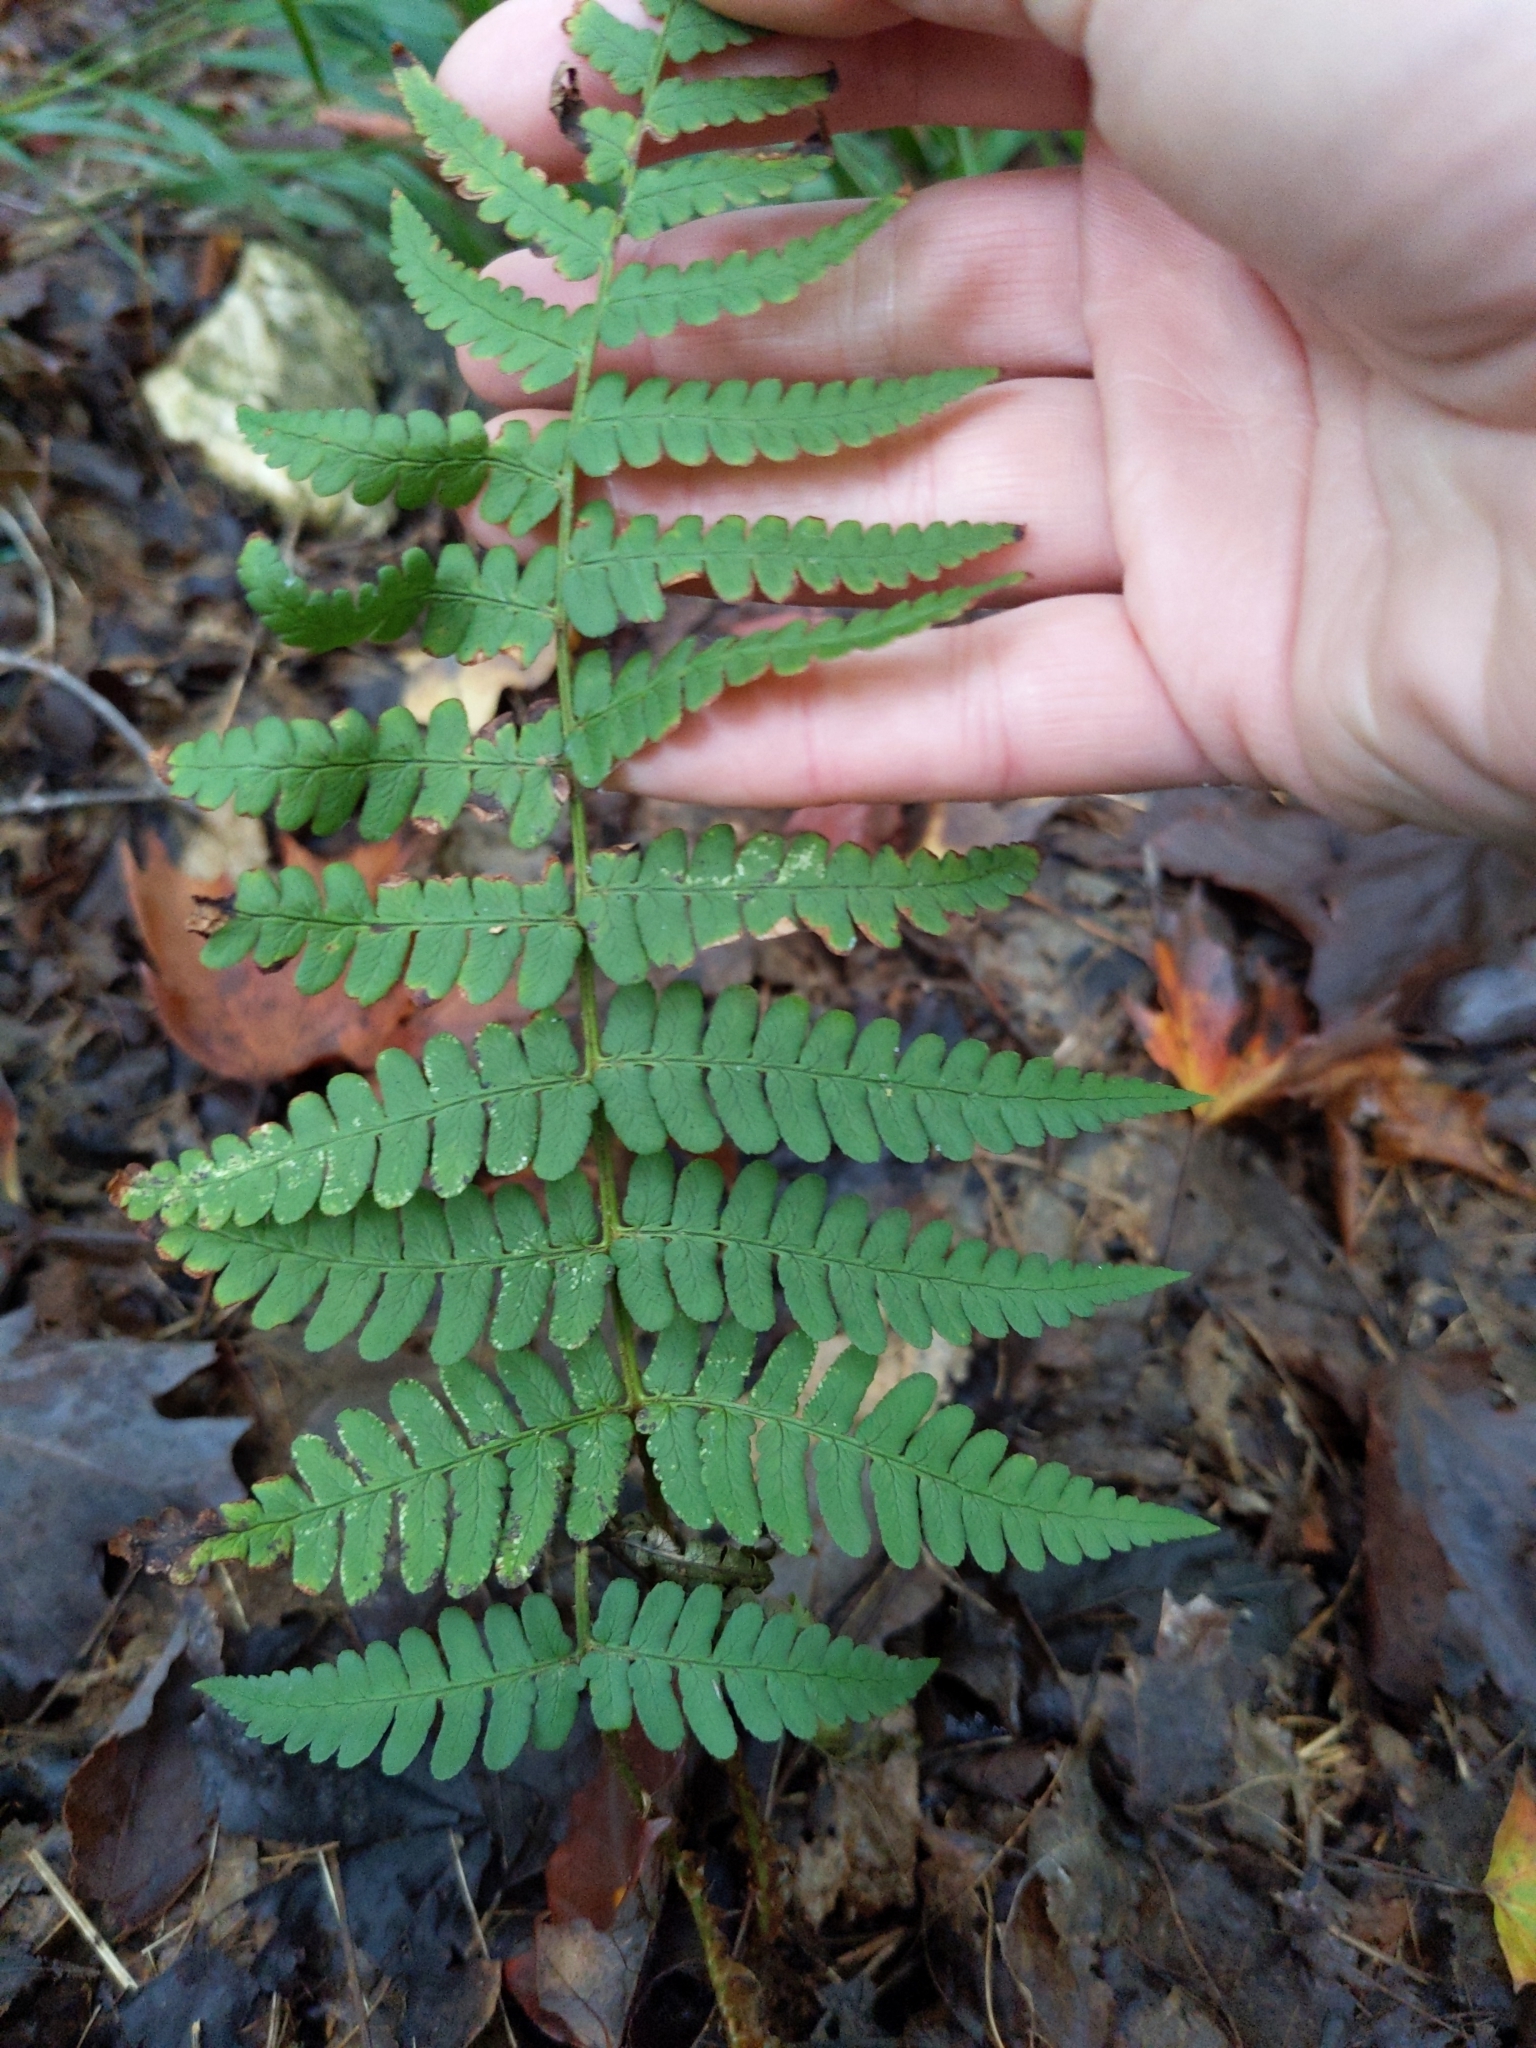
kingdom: Plantae
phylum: Tracheophyta
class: Polypodiopsida
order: Polypodiales
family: Dryopteridaceae
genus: Dryopteris
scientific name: Dryopteris marginalis
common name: Marginal wood fern
